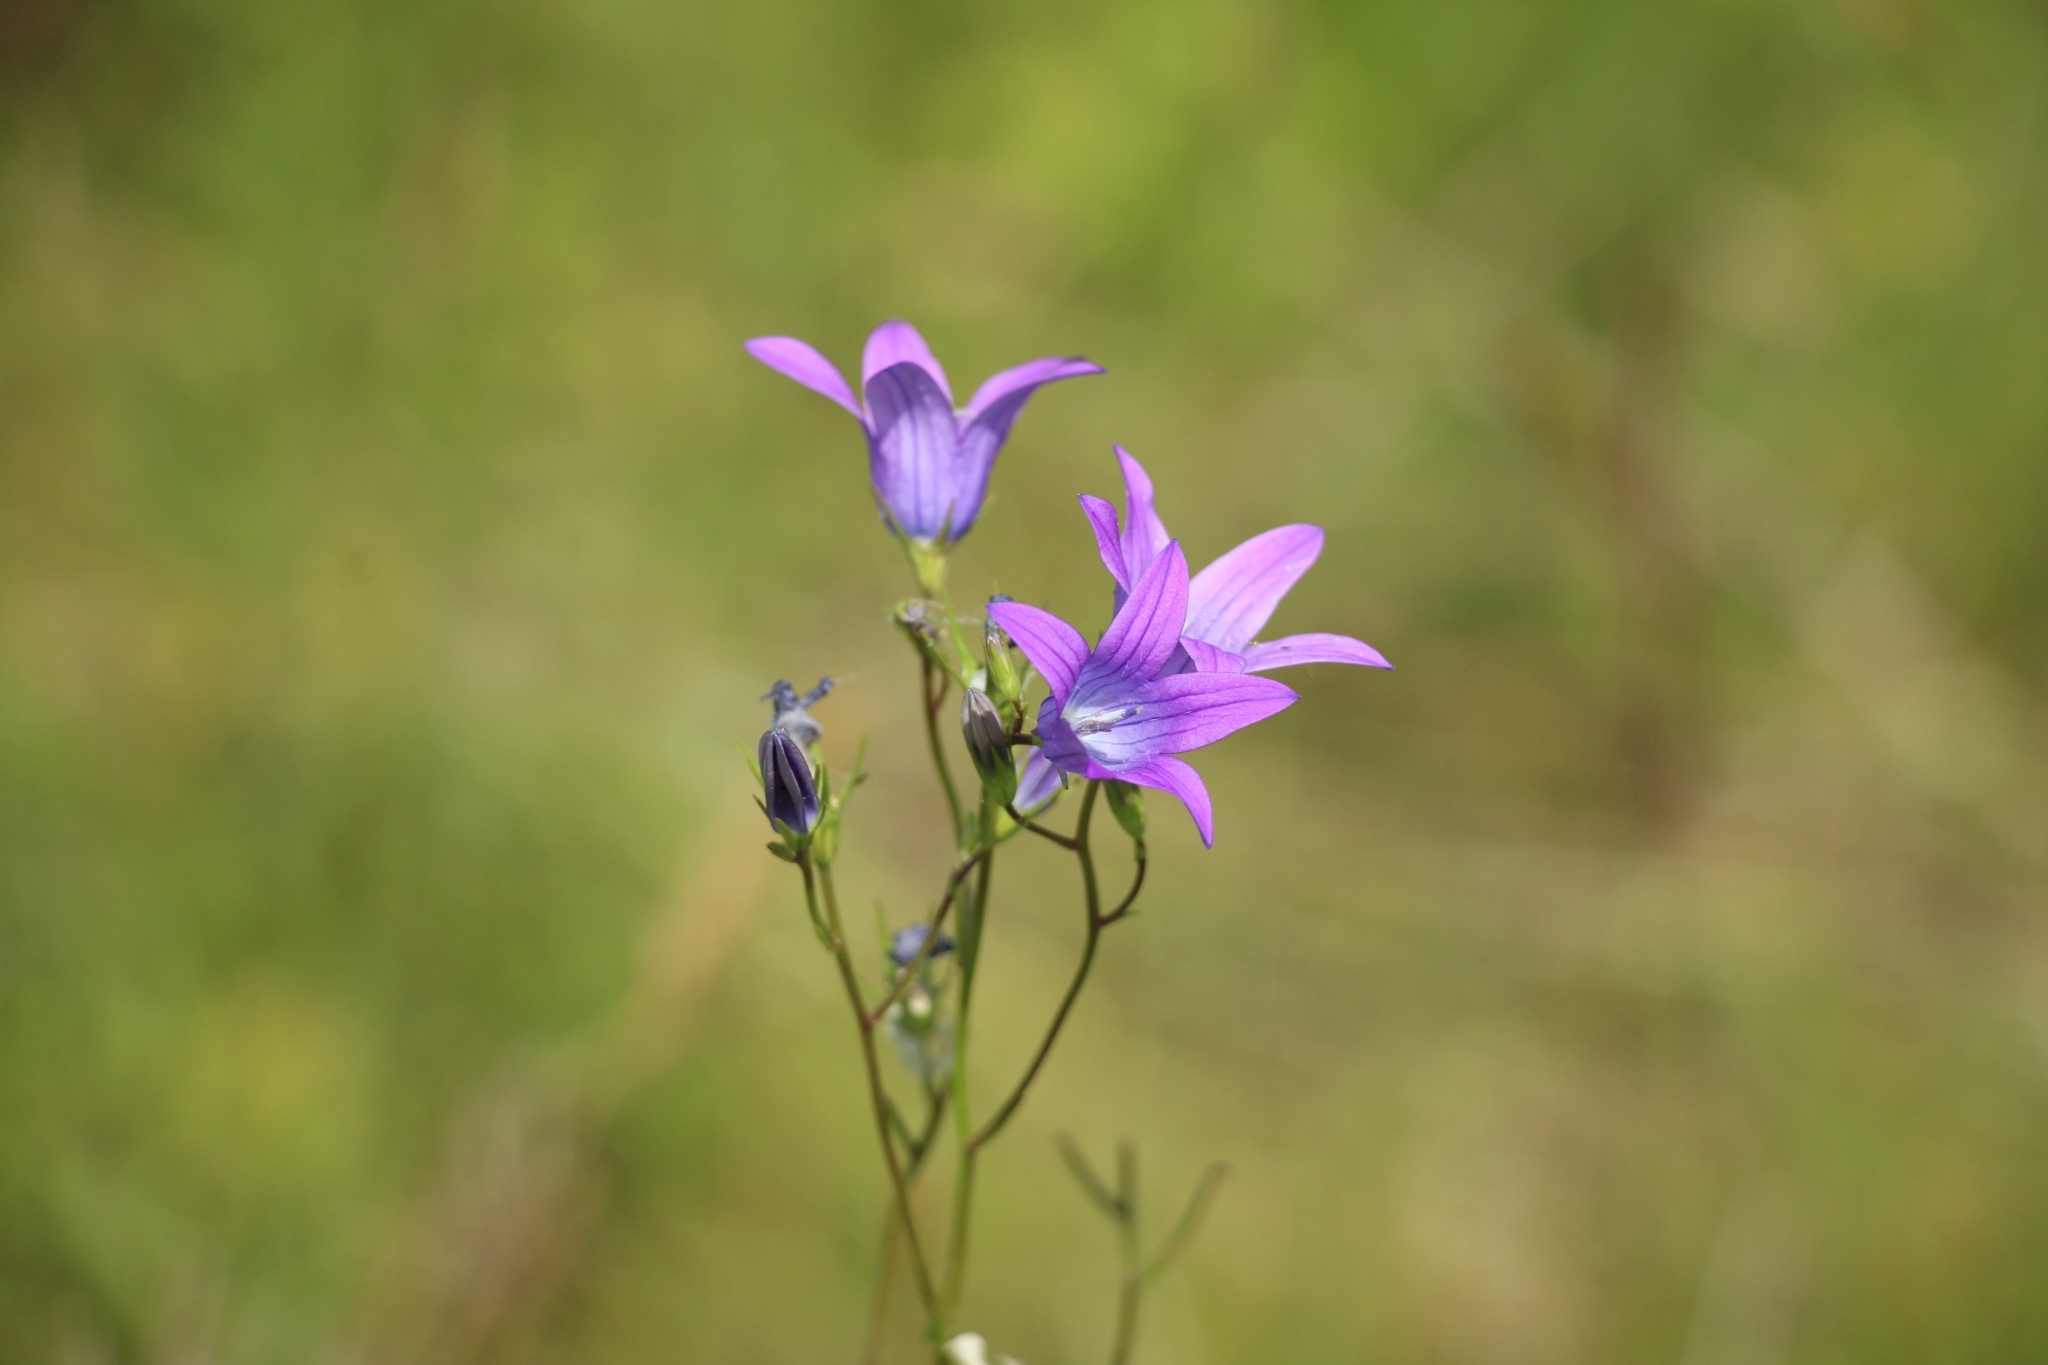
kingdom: Plantae
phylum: Tracheophyta
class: Magnoliopsida
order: Asterales
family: Campanulaceae
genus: Campanula
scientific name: Campanula patula
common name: Spreading bellflower
